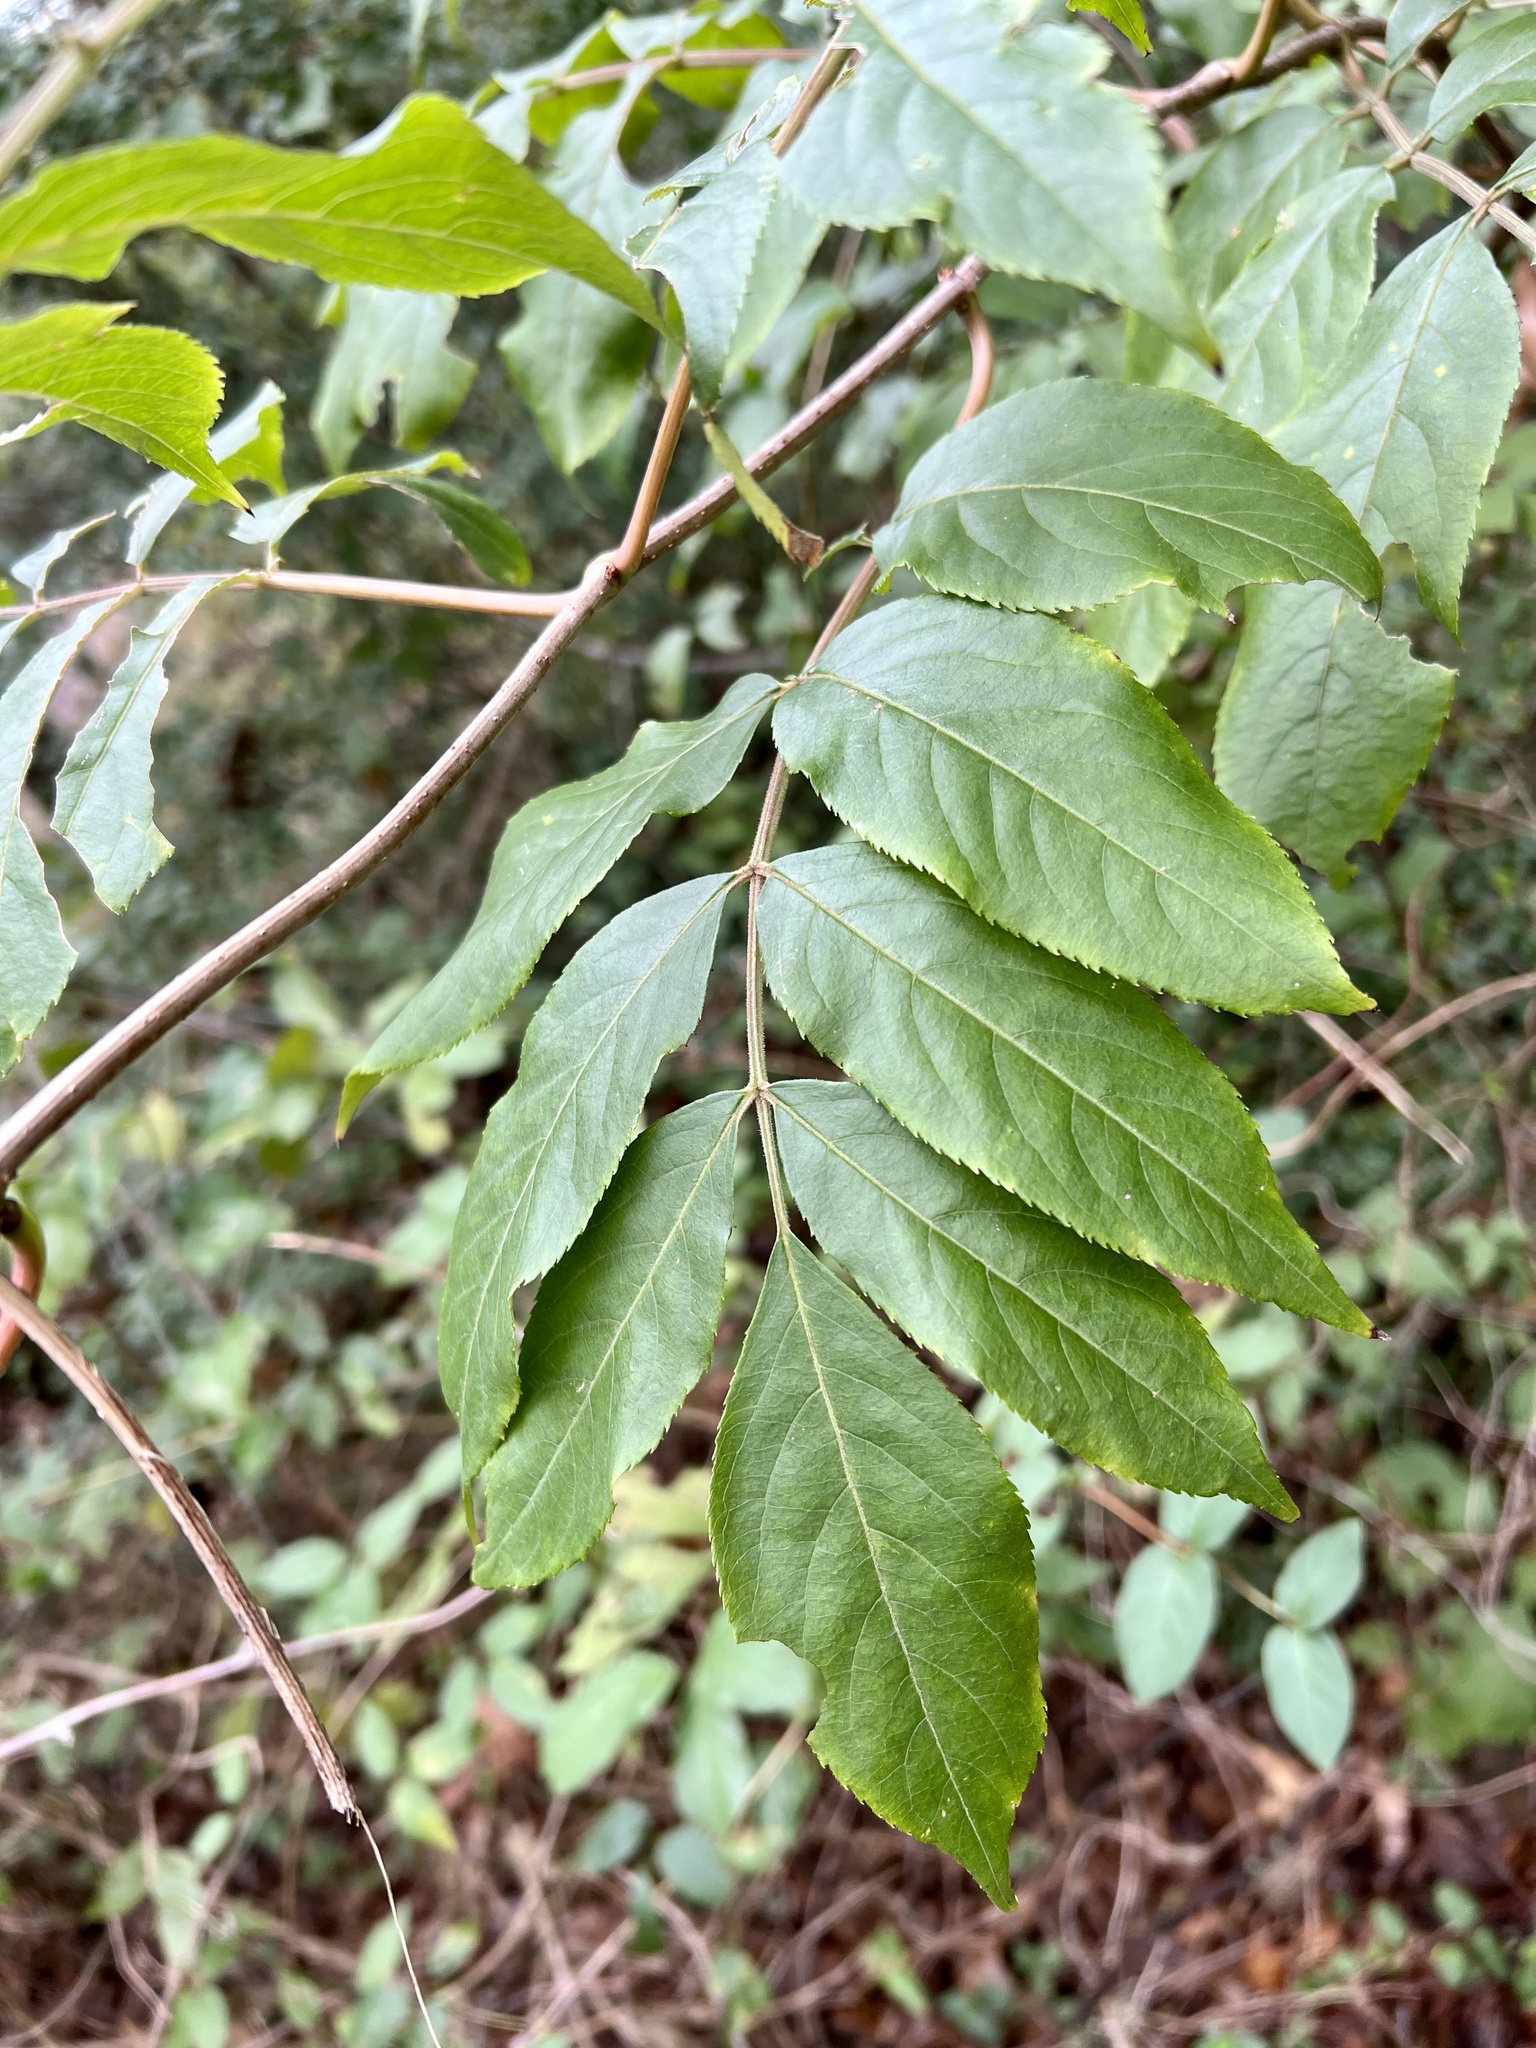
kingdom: Plantae
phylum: Tracheophyta
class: Magnoliopsida
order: Dipsacales
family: Viburnaceae
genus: Sambucus
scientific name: Sambucus canadensis
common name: American elder
